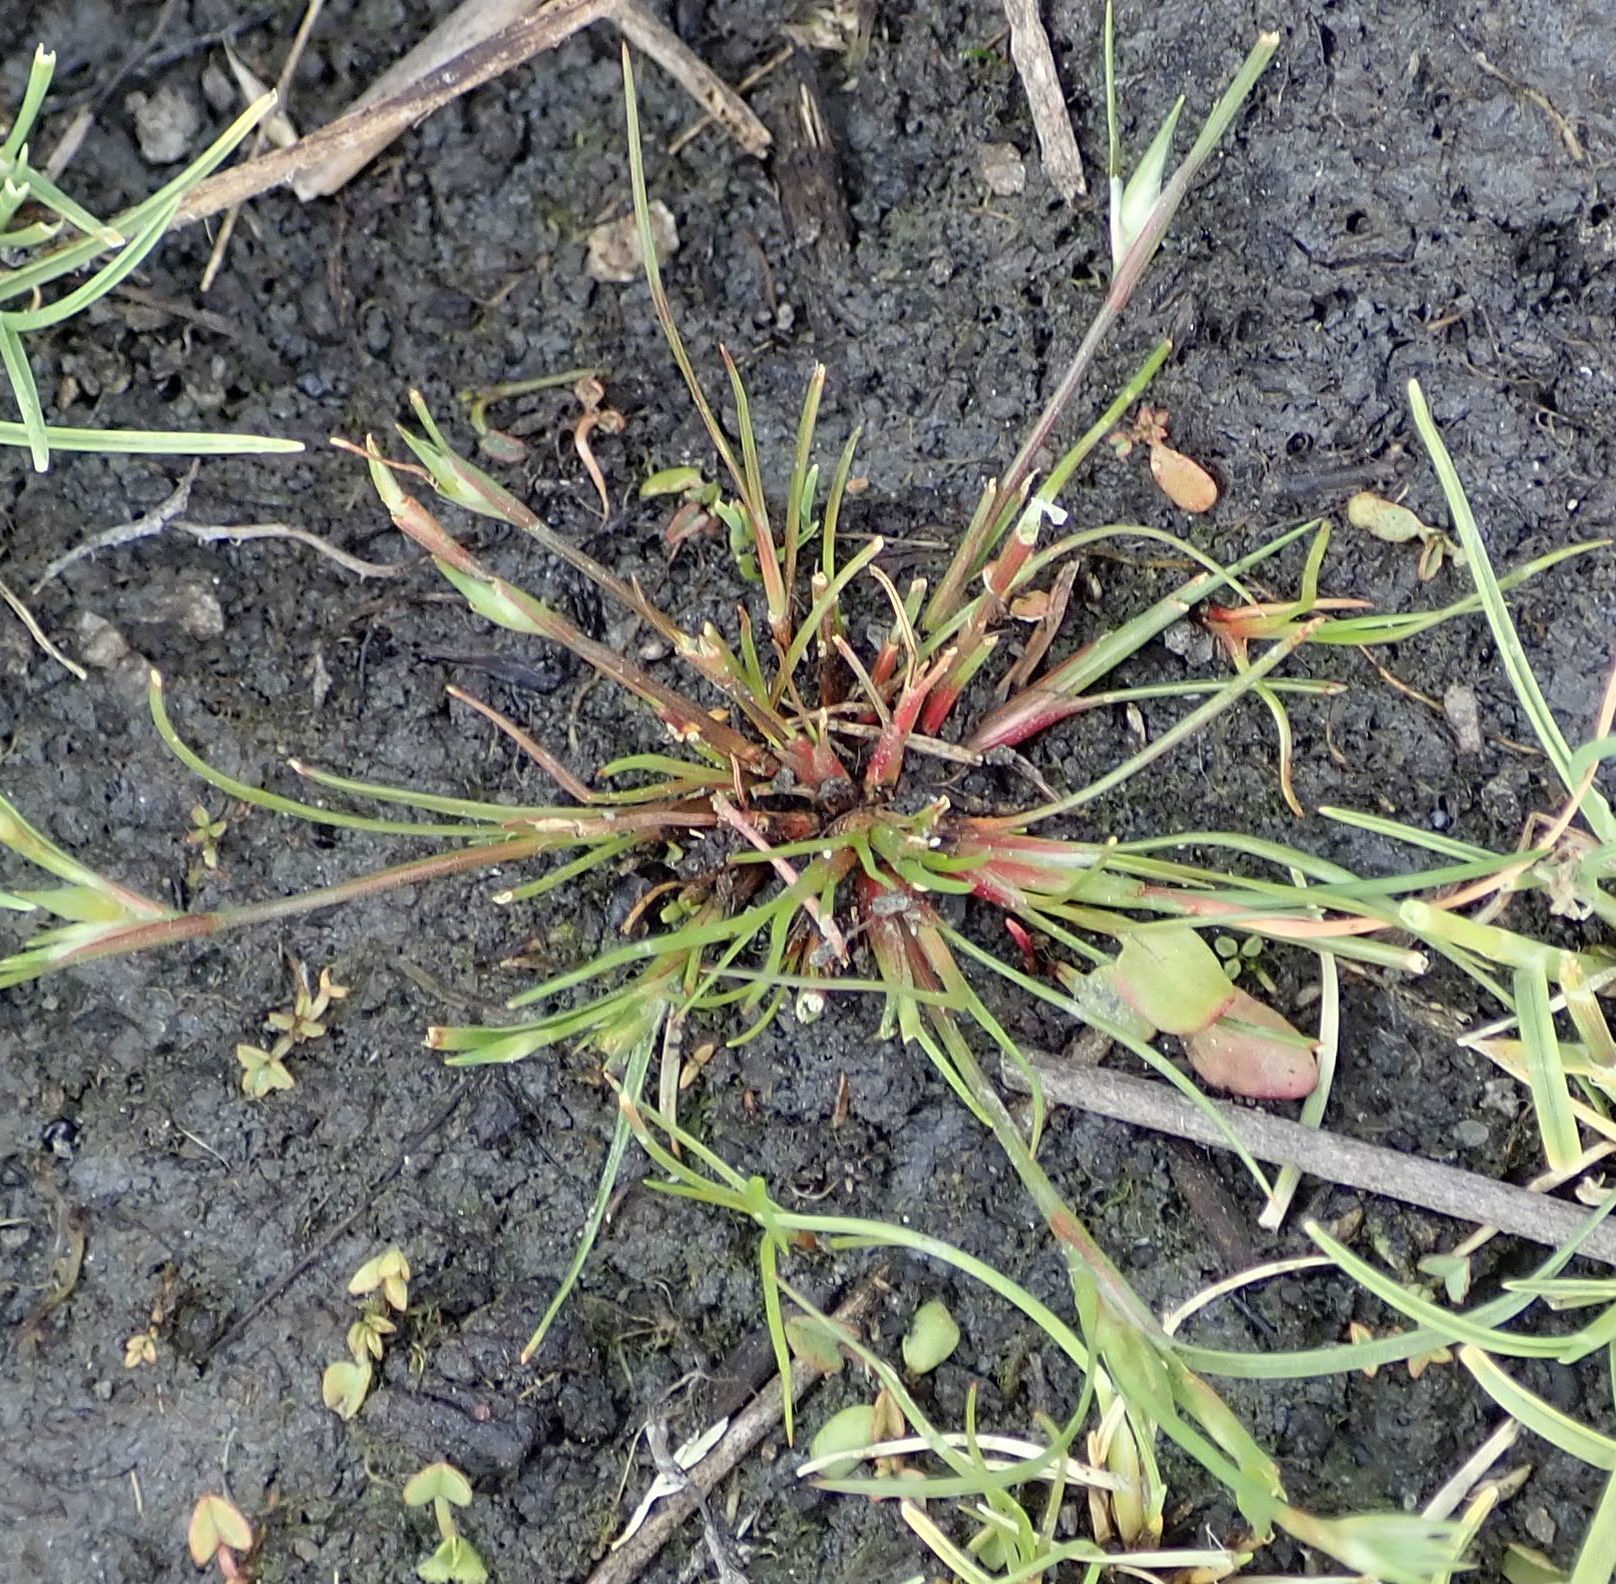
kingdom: Plantae
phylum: Tracheophyta
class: Liliopsida
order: Poales
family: Juncaceae
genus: Juncus
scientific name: Juncus bufonius
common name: Toad rush
